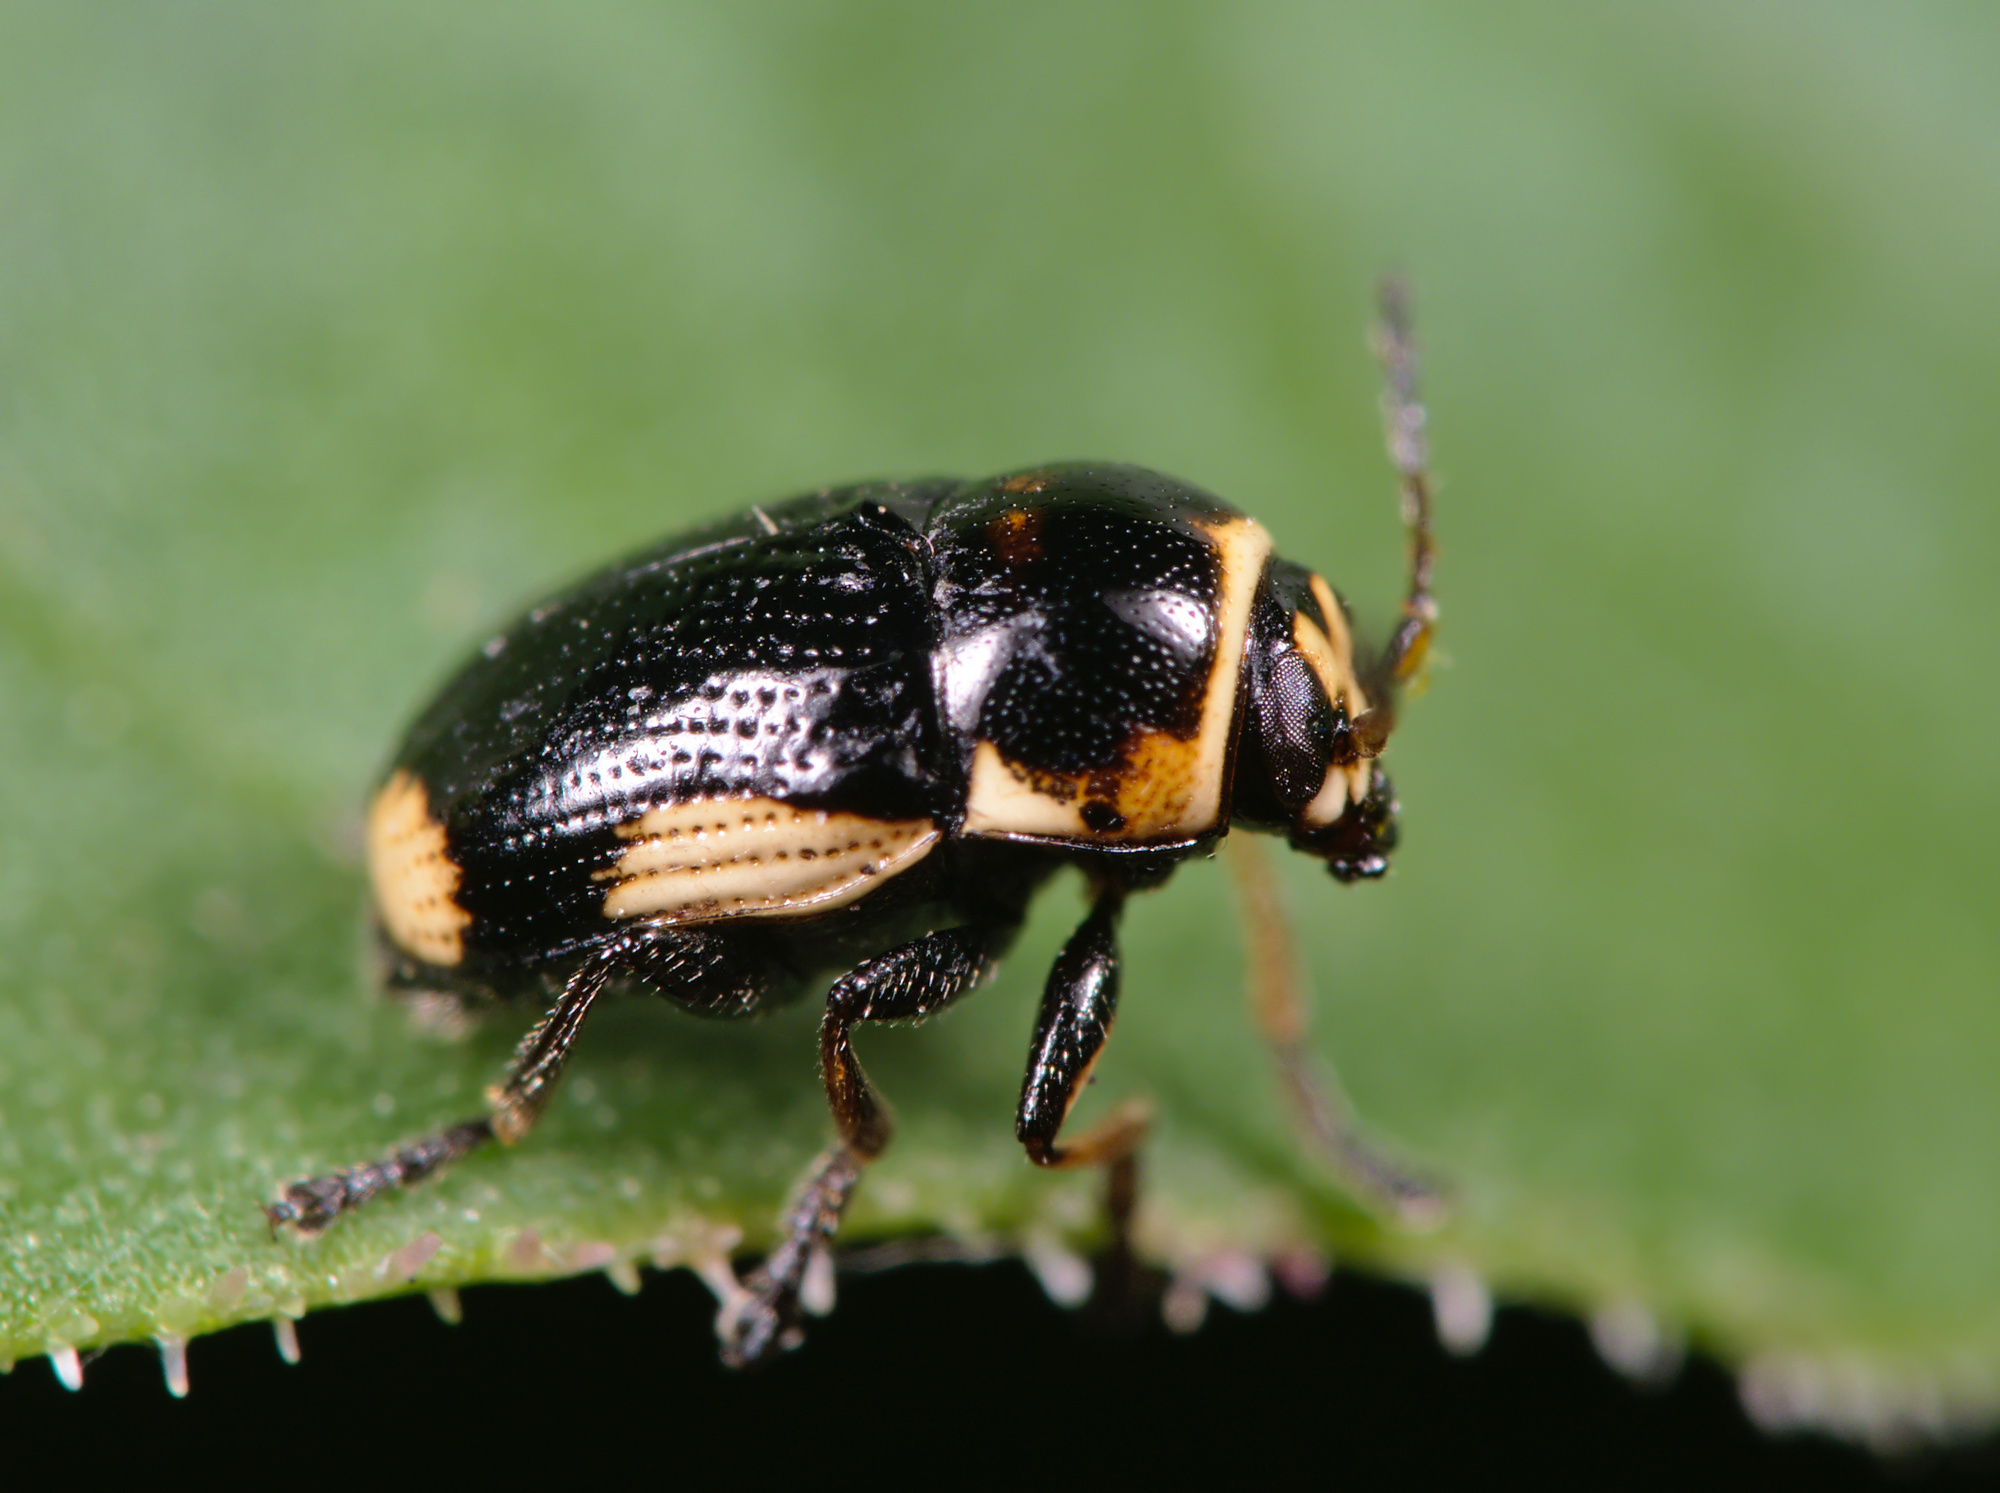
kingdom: Animalia
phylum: Arthropoda
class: Insecta
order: Coleoptera
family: Chrysomelidae
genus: Cryptocephalus
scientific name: Cryptocephalus moraei
